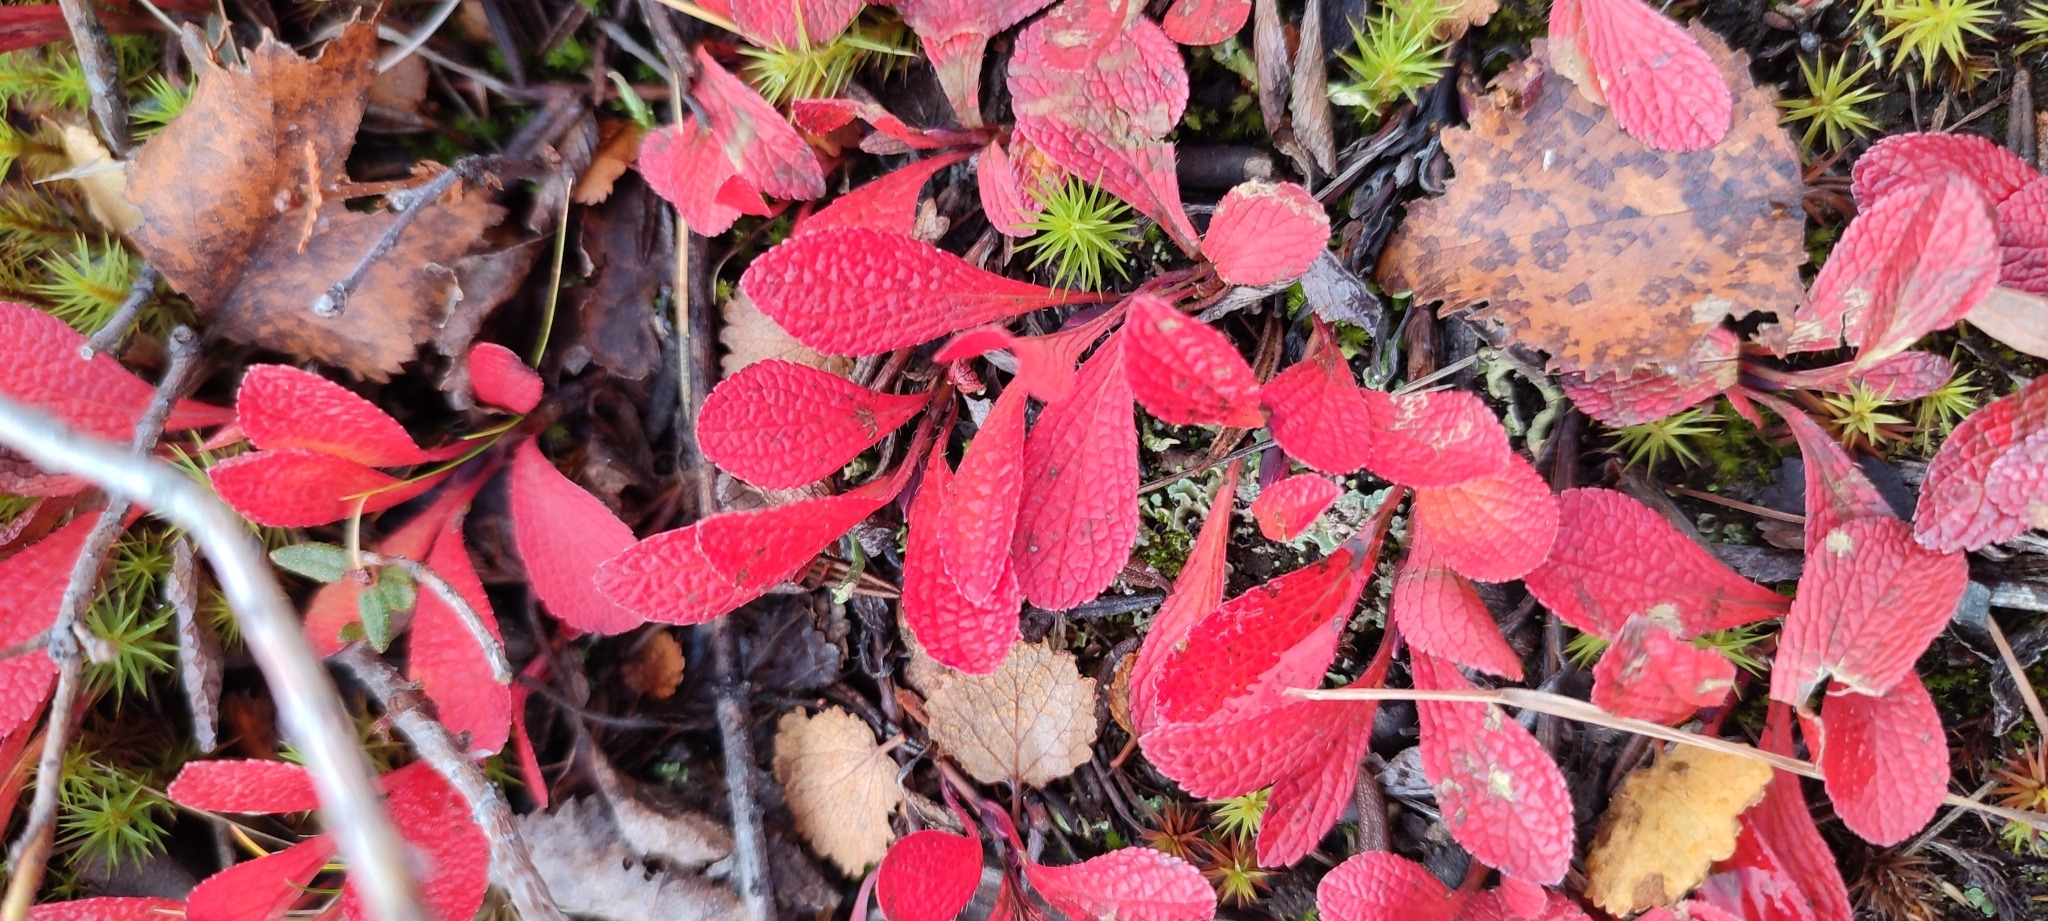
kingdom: Plantae
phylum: Tracheophyta
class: Magnoliopsida
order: Ericales
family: Ericaceae
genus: Arctostaphylos
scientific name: Arctostaphylos alpinus
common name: Alpine bearberry
